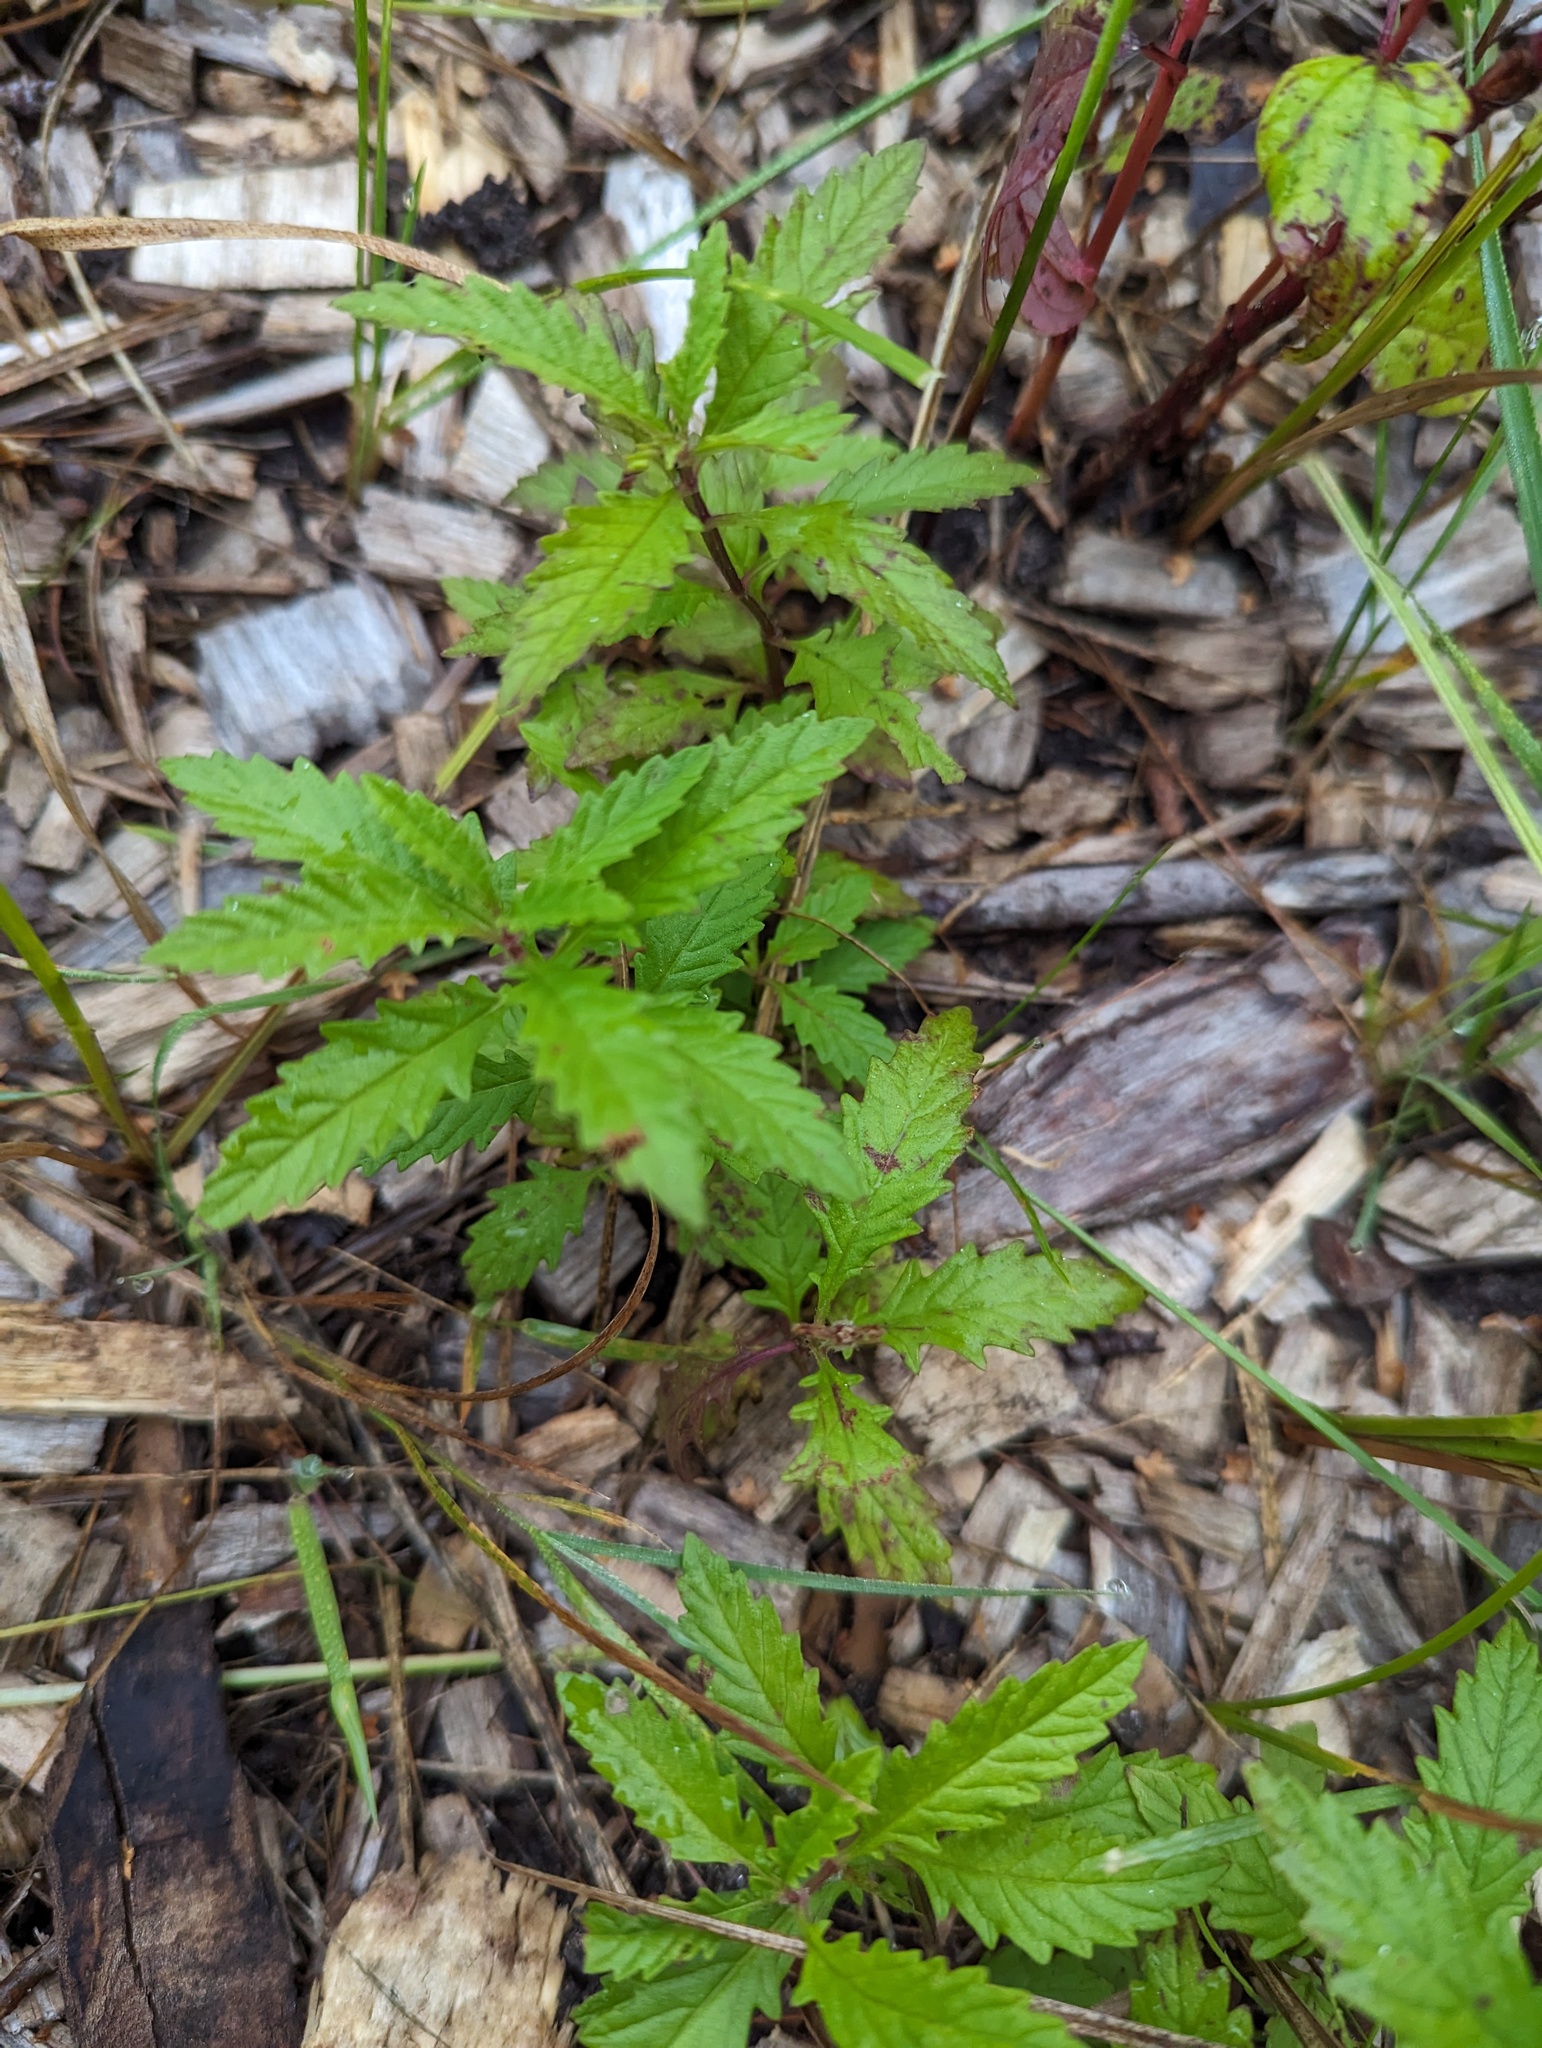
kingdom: Plantae
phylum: Tracheophyta
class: Magnoliopsida
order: Lamiales
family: Lamiaceae
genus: Lycopus
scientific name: Lycopus europaeus
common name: European bugleweed
